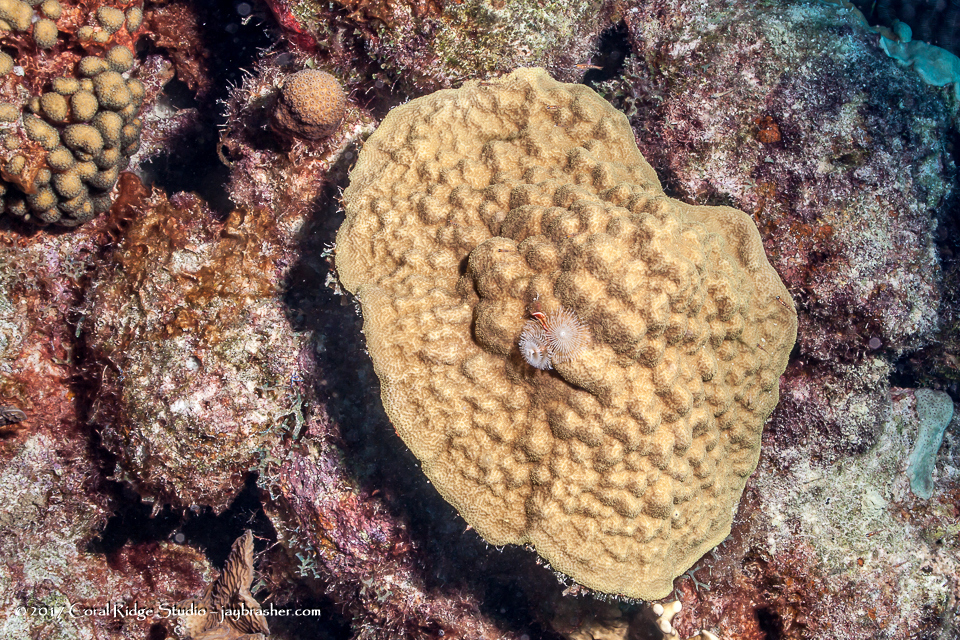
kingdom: Animalia
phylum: Cnidaria
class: Anthozoa
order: Scleractinia
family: Poritidae
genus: Porites
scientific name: Porites astreoides
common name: Mustard hill coral
